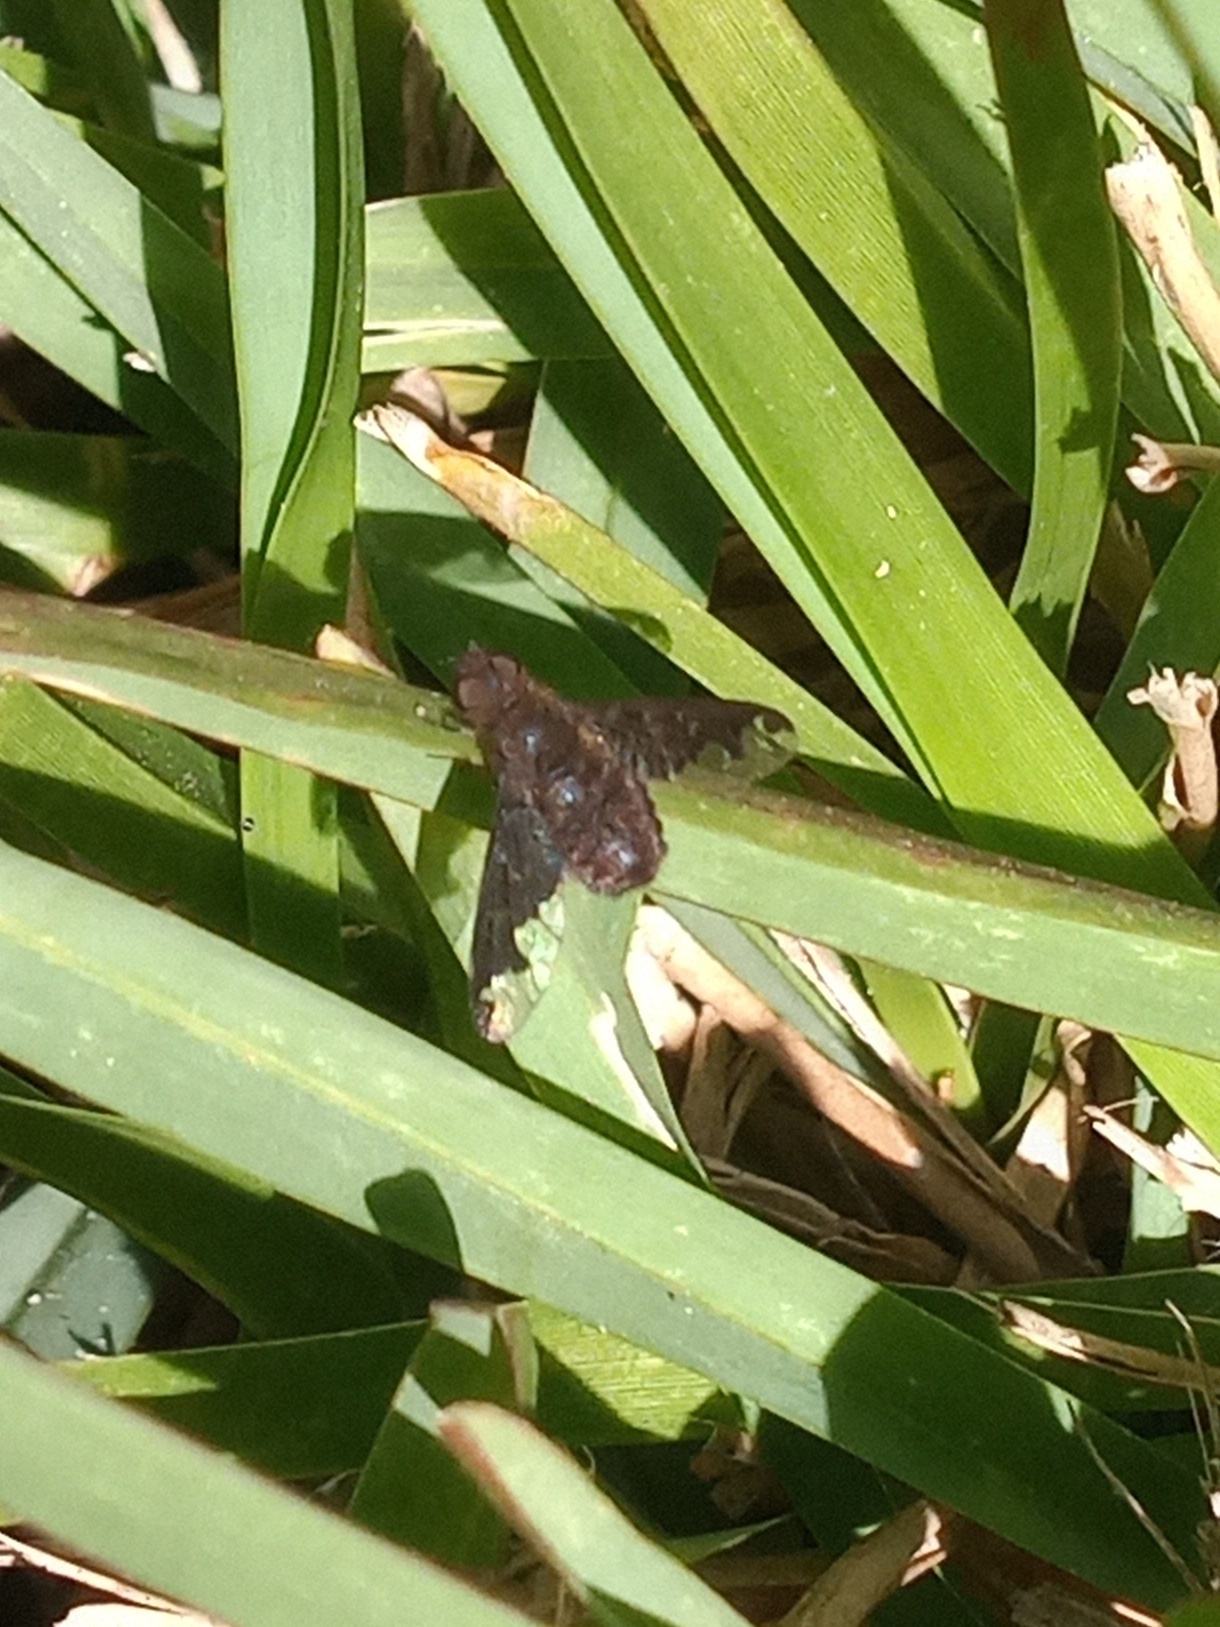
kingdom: Animalia
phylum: Arthropoda
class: Insecta
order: Diptera
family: Bombyliidae
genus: Hemipenthes
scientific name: Hemipenthes sinuosus
